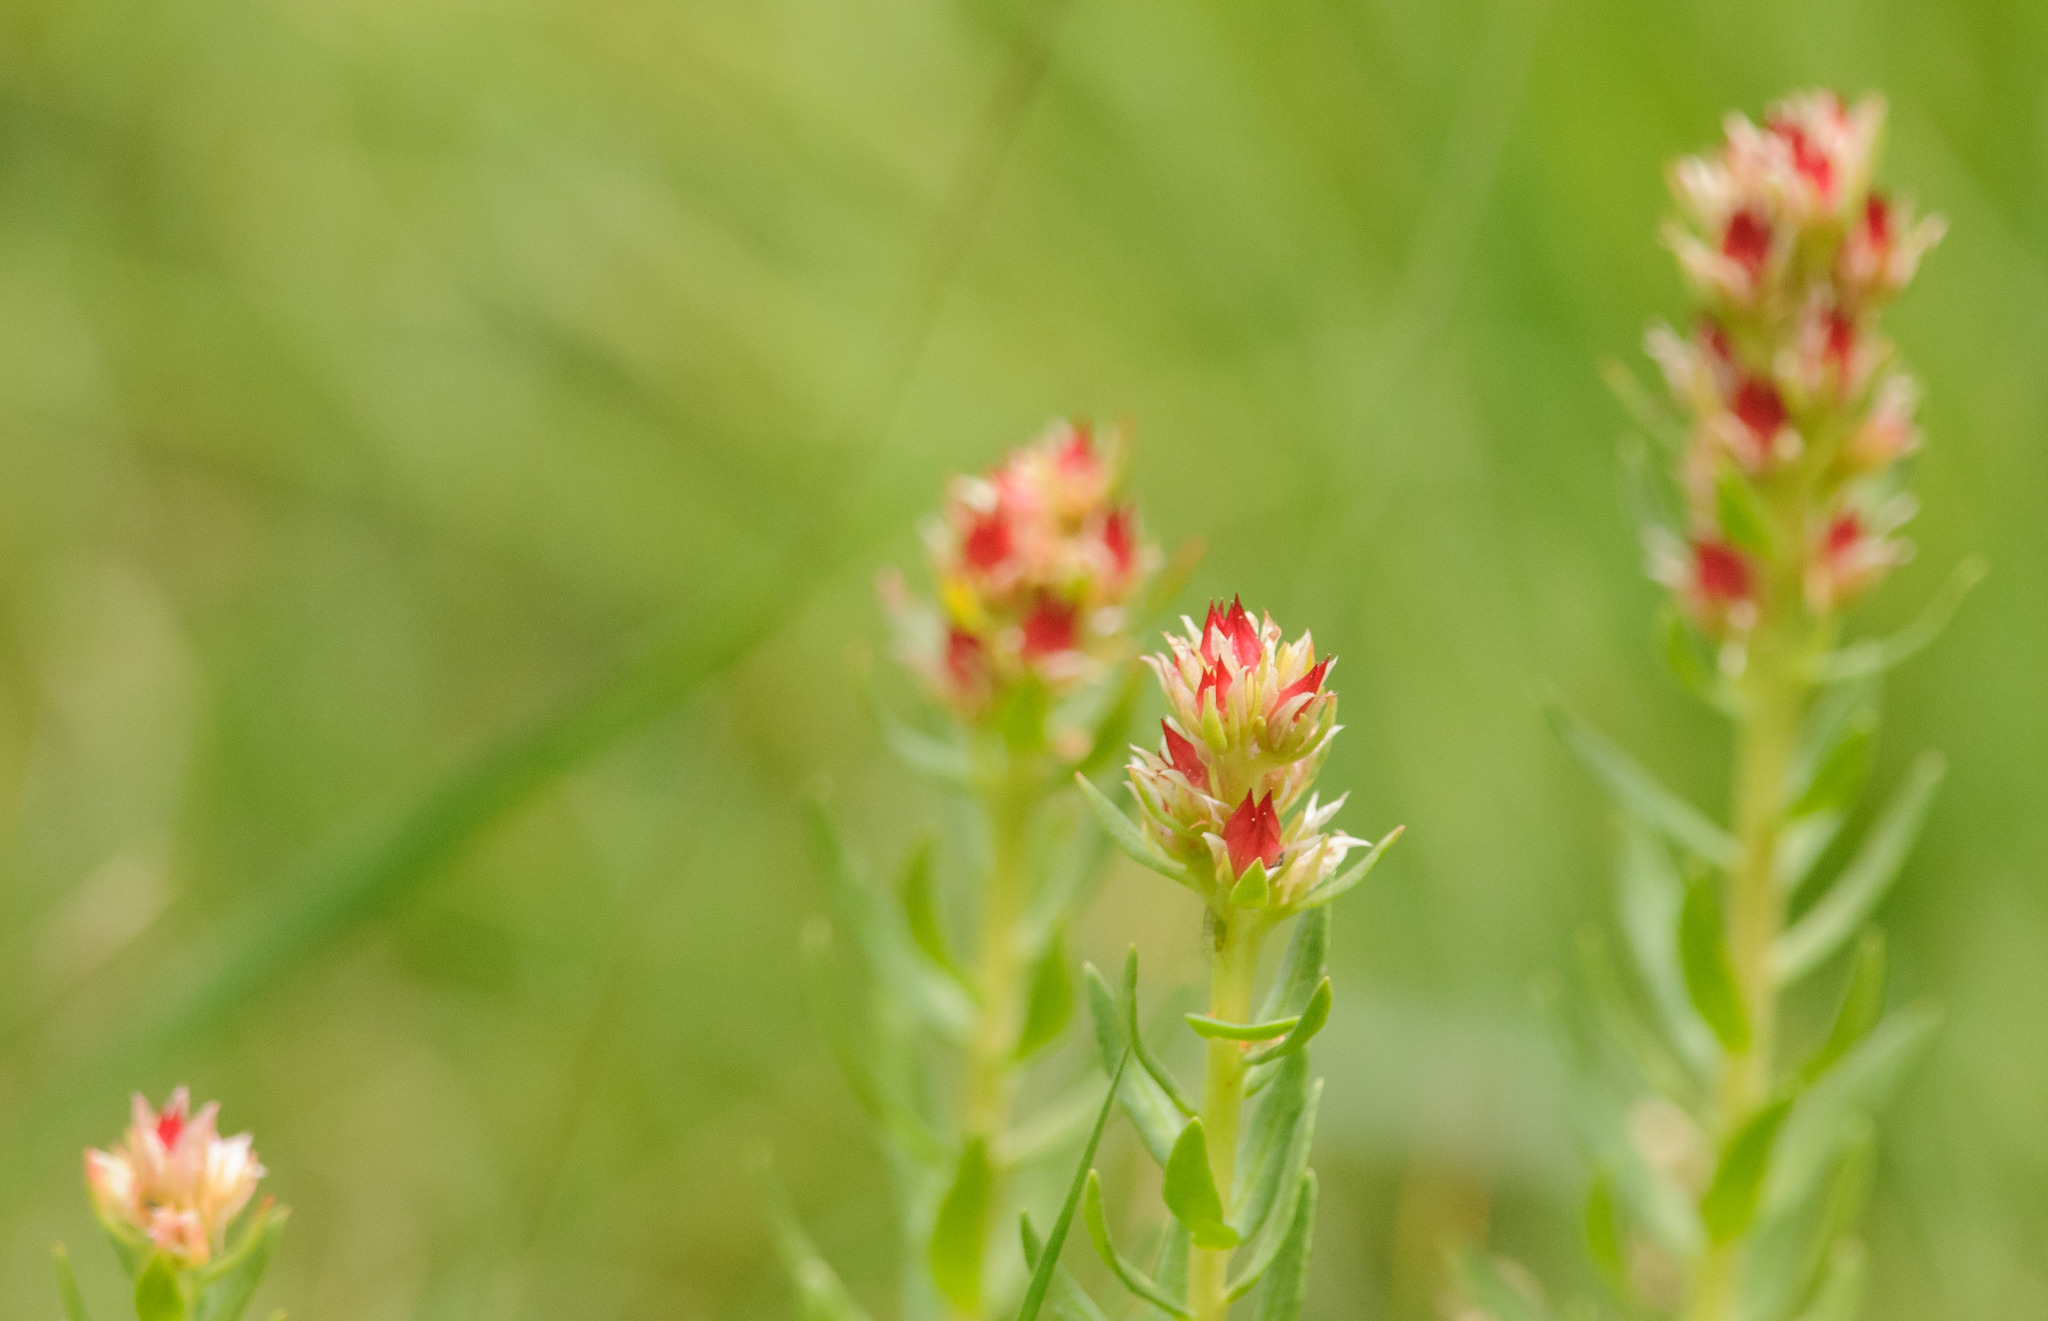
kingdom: Plantae
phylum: Tracheophyta
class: Magnoliopsida
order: Saxifragales
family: Crassulaceae
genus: Rhodiola
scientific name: Rhodiola rhodantha
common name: Red orpine
